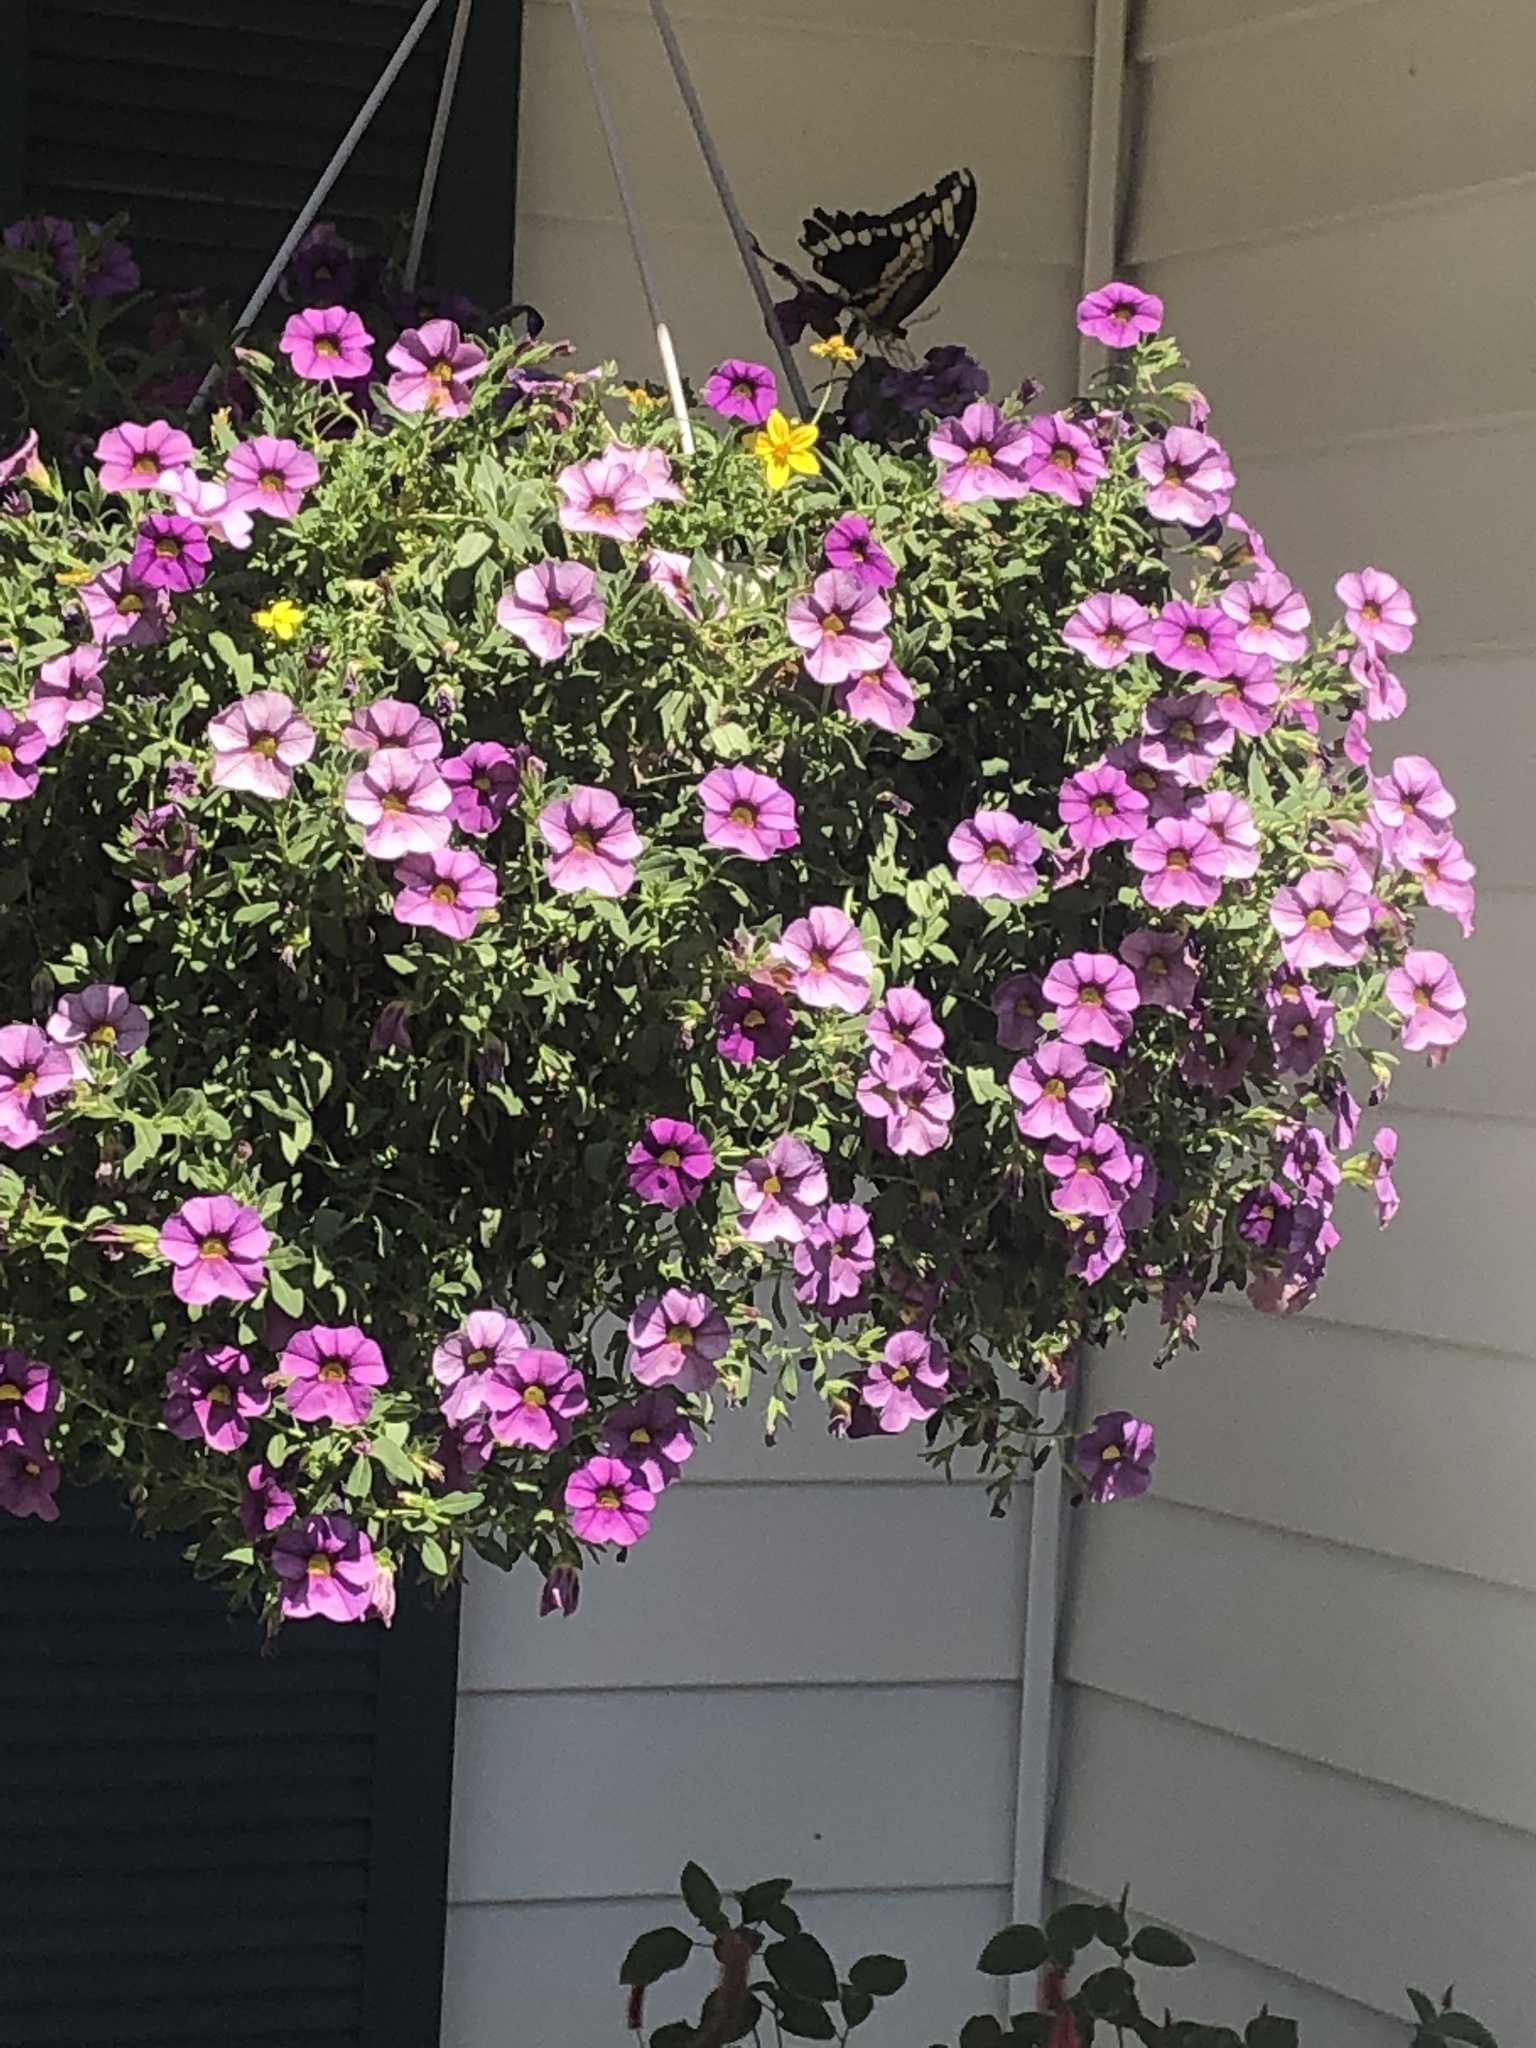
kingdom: Animalia
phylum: Arthropoda
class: Insecta
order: Lepidoptera
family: Papilionidae
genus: Papilio
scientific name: Papilio cresphontes
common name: Giant swallowtail
